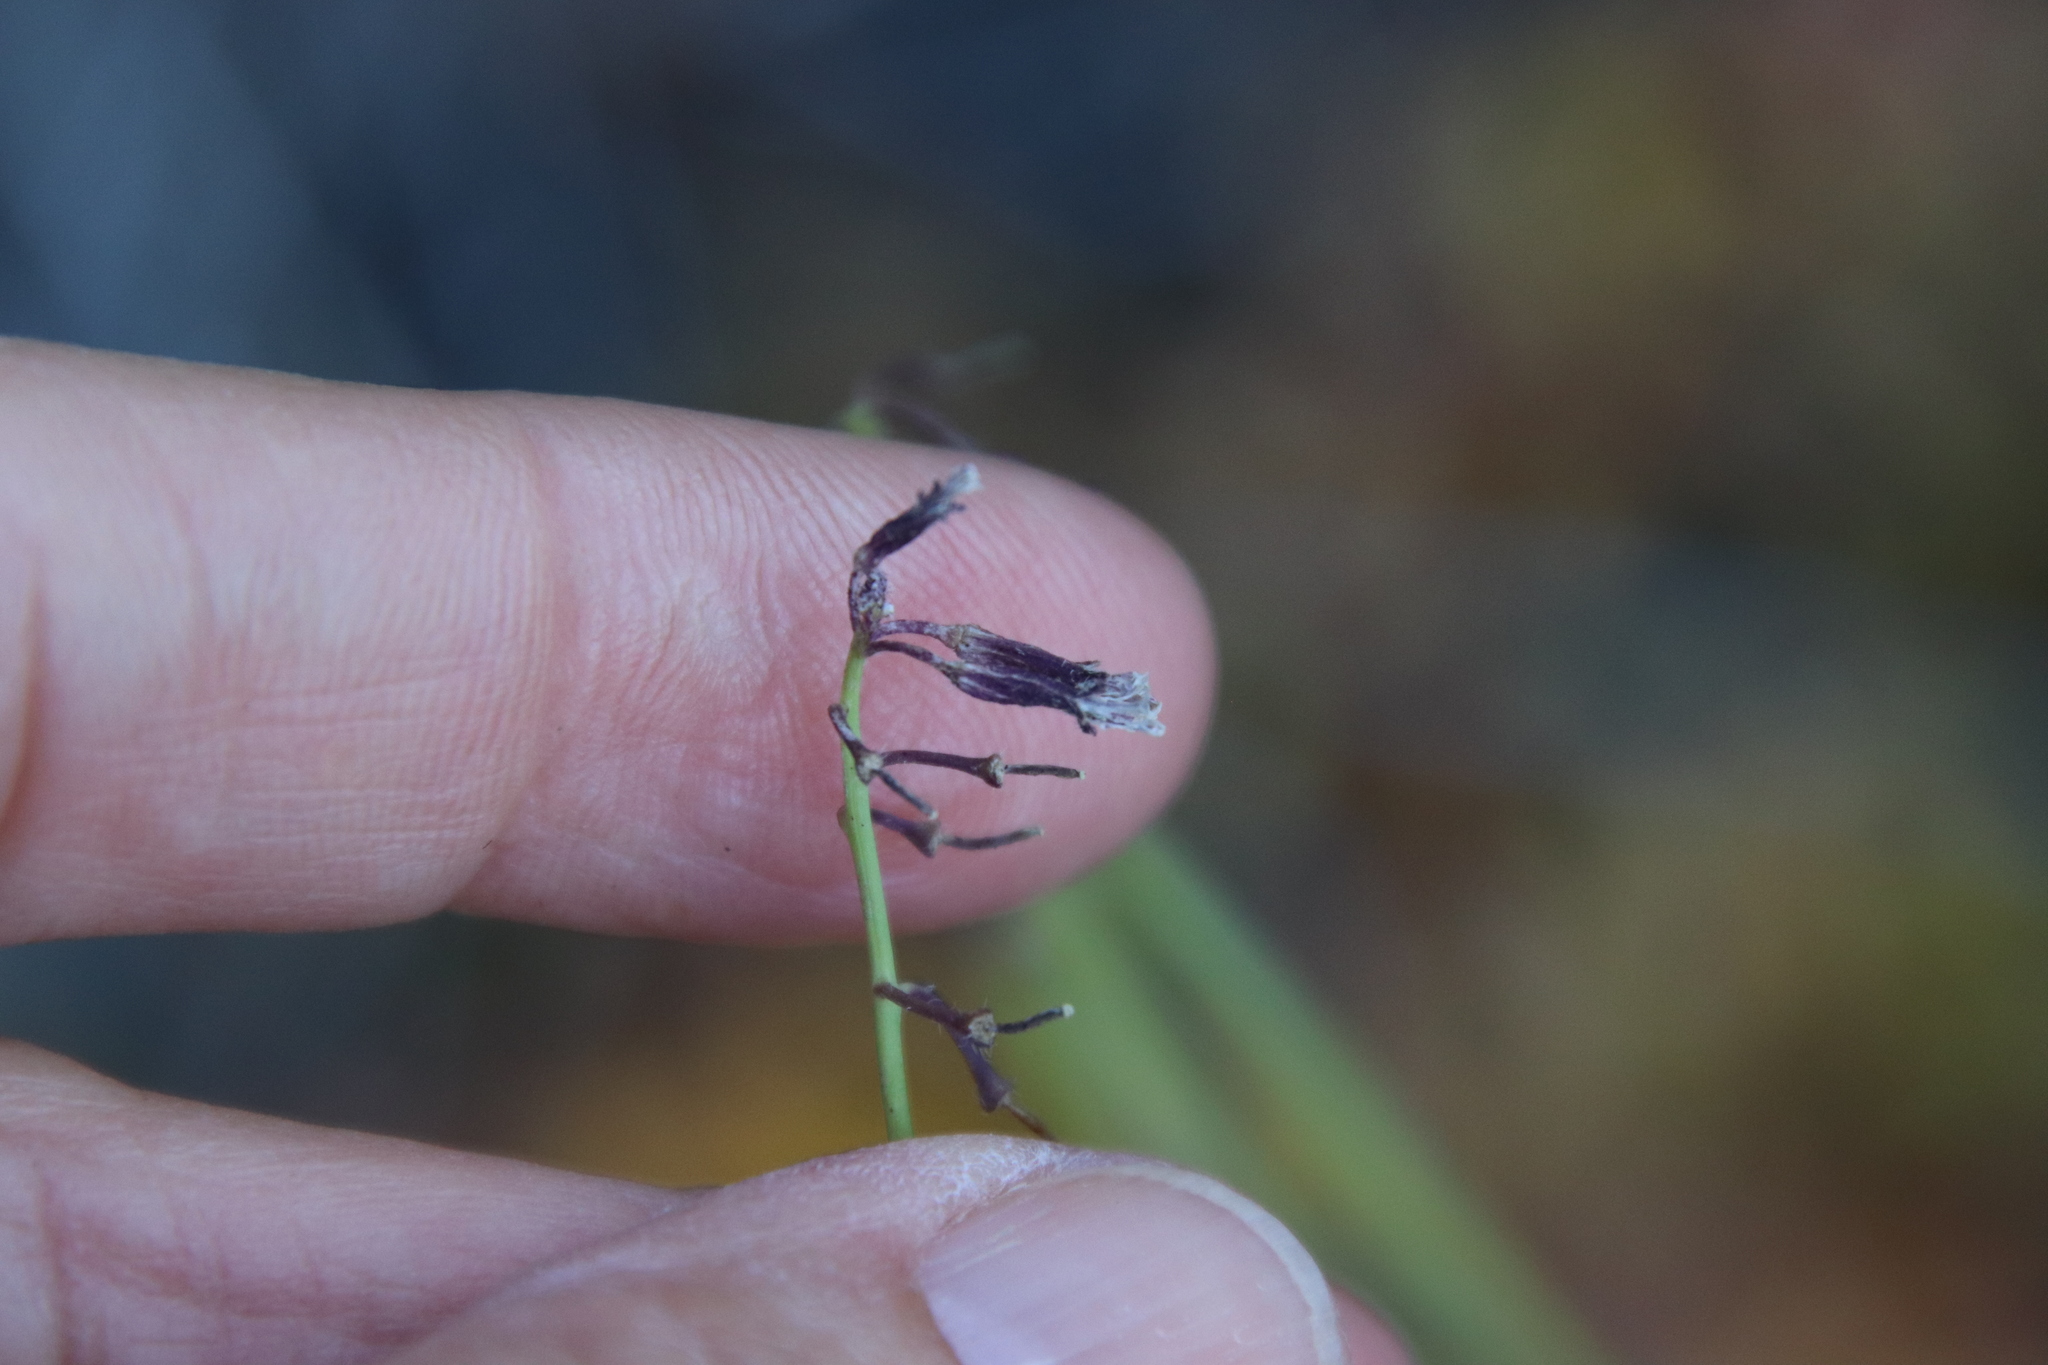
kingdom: Plantae
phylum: Tracheophyta
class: Magnoliopsida
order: Brassicales
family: Brassicaceae
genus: Streptanthus
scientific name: Streptanthus heterophyllus
